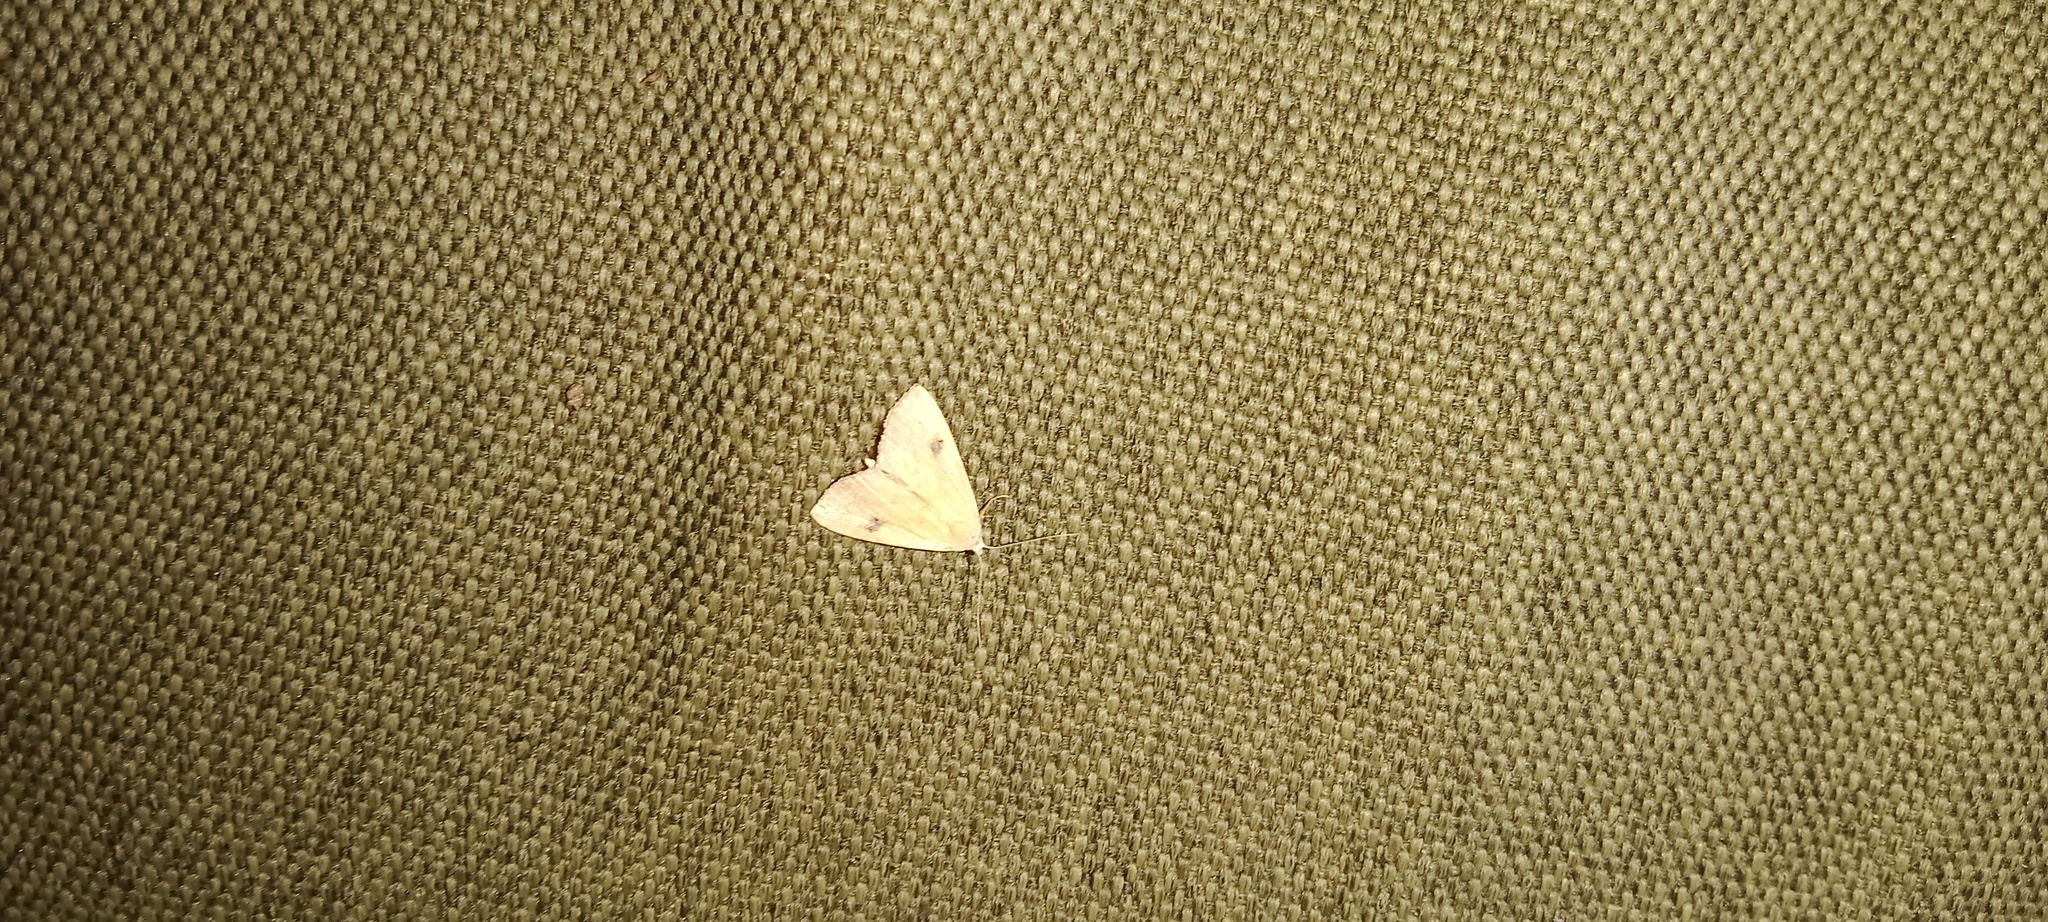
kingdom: Animalia
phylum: Arthropoda
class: Insecta
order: Lepidoptera
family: Erebidae
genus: Rivula
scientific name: Rivula sericealis
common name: Straw dot
